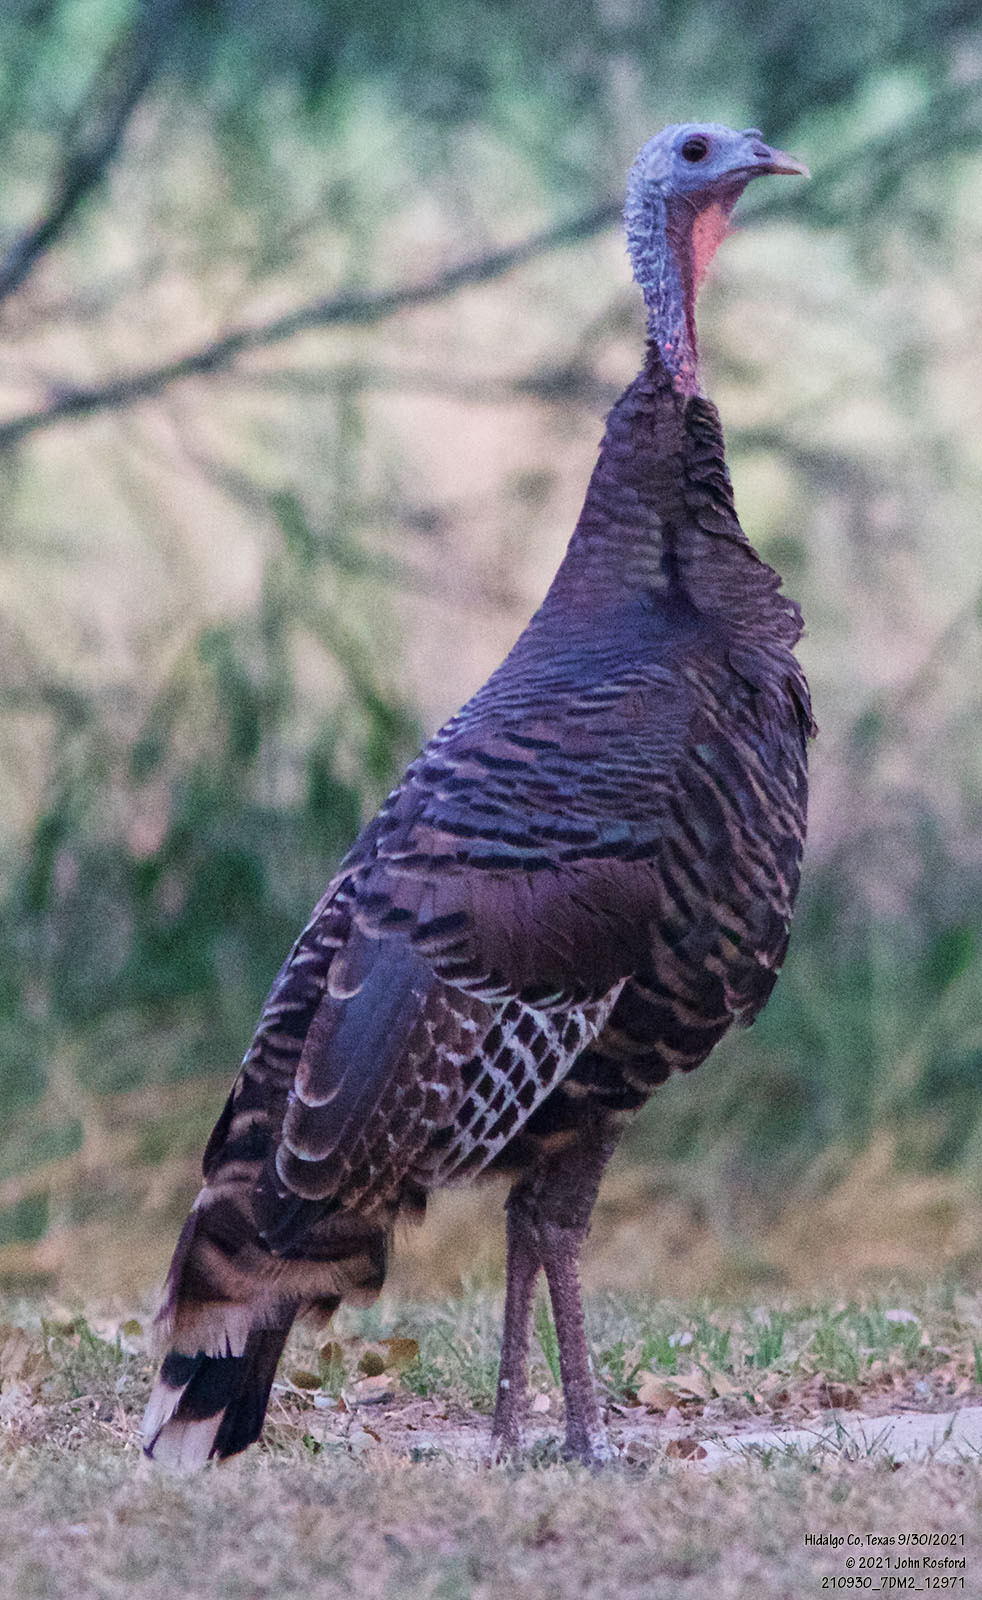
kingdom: Animalia
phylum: Chordata
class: Aves
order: Galliformes
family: Phasianidae
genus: Meleagris
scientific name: Meleagris gallopavo
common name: Wild turkey
